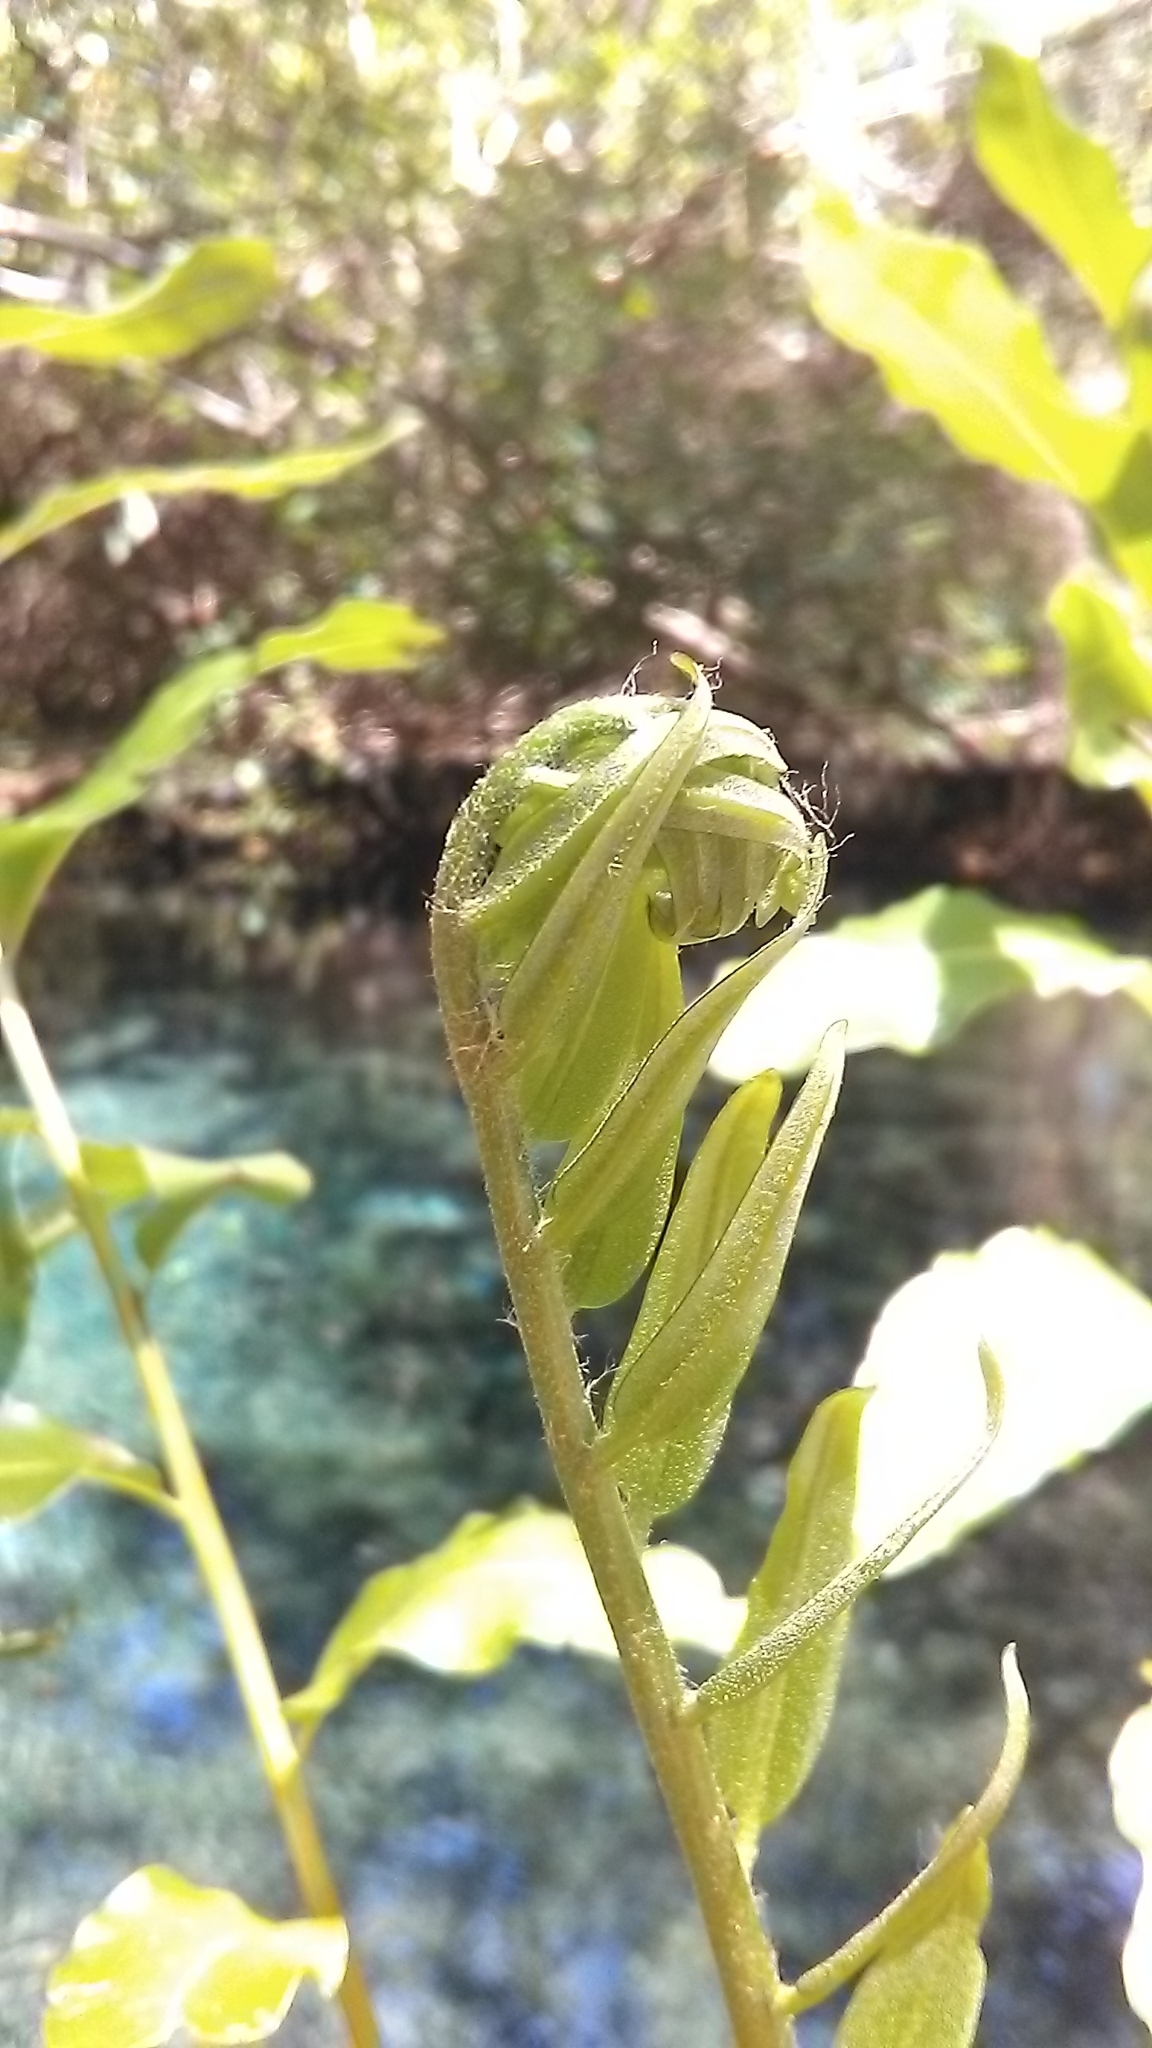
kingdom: Plantae
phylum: Tracheophyta
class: Polypodiopsida
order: Polypodiales
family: Pteridaceae
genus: Acrostichum
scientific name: Acrostichum danaeifolium
